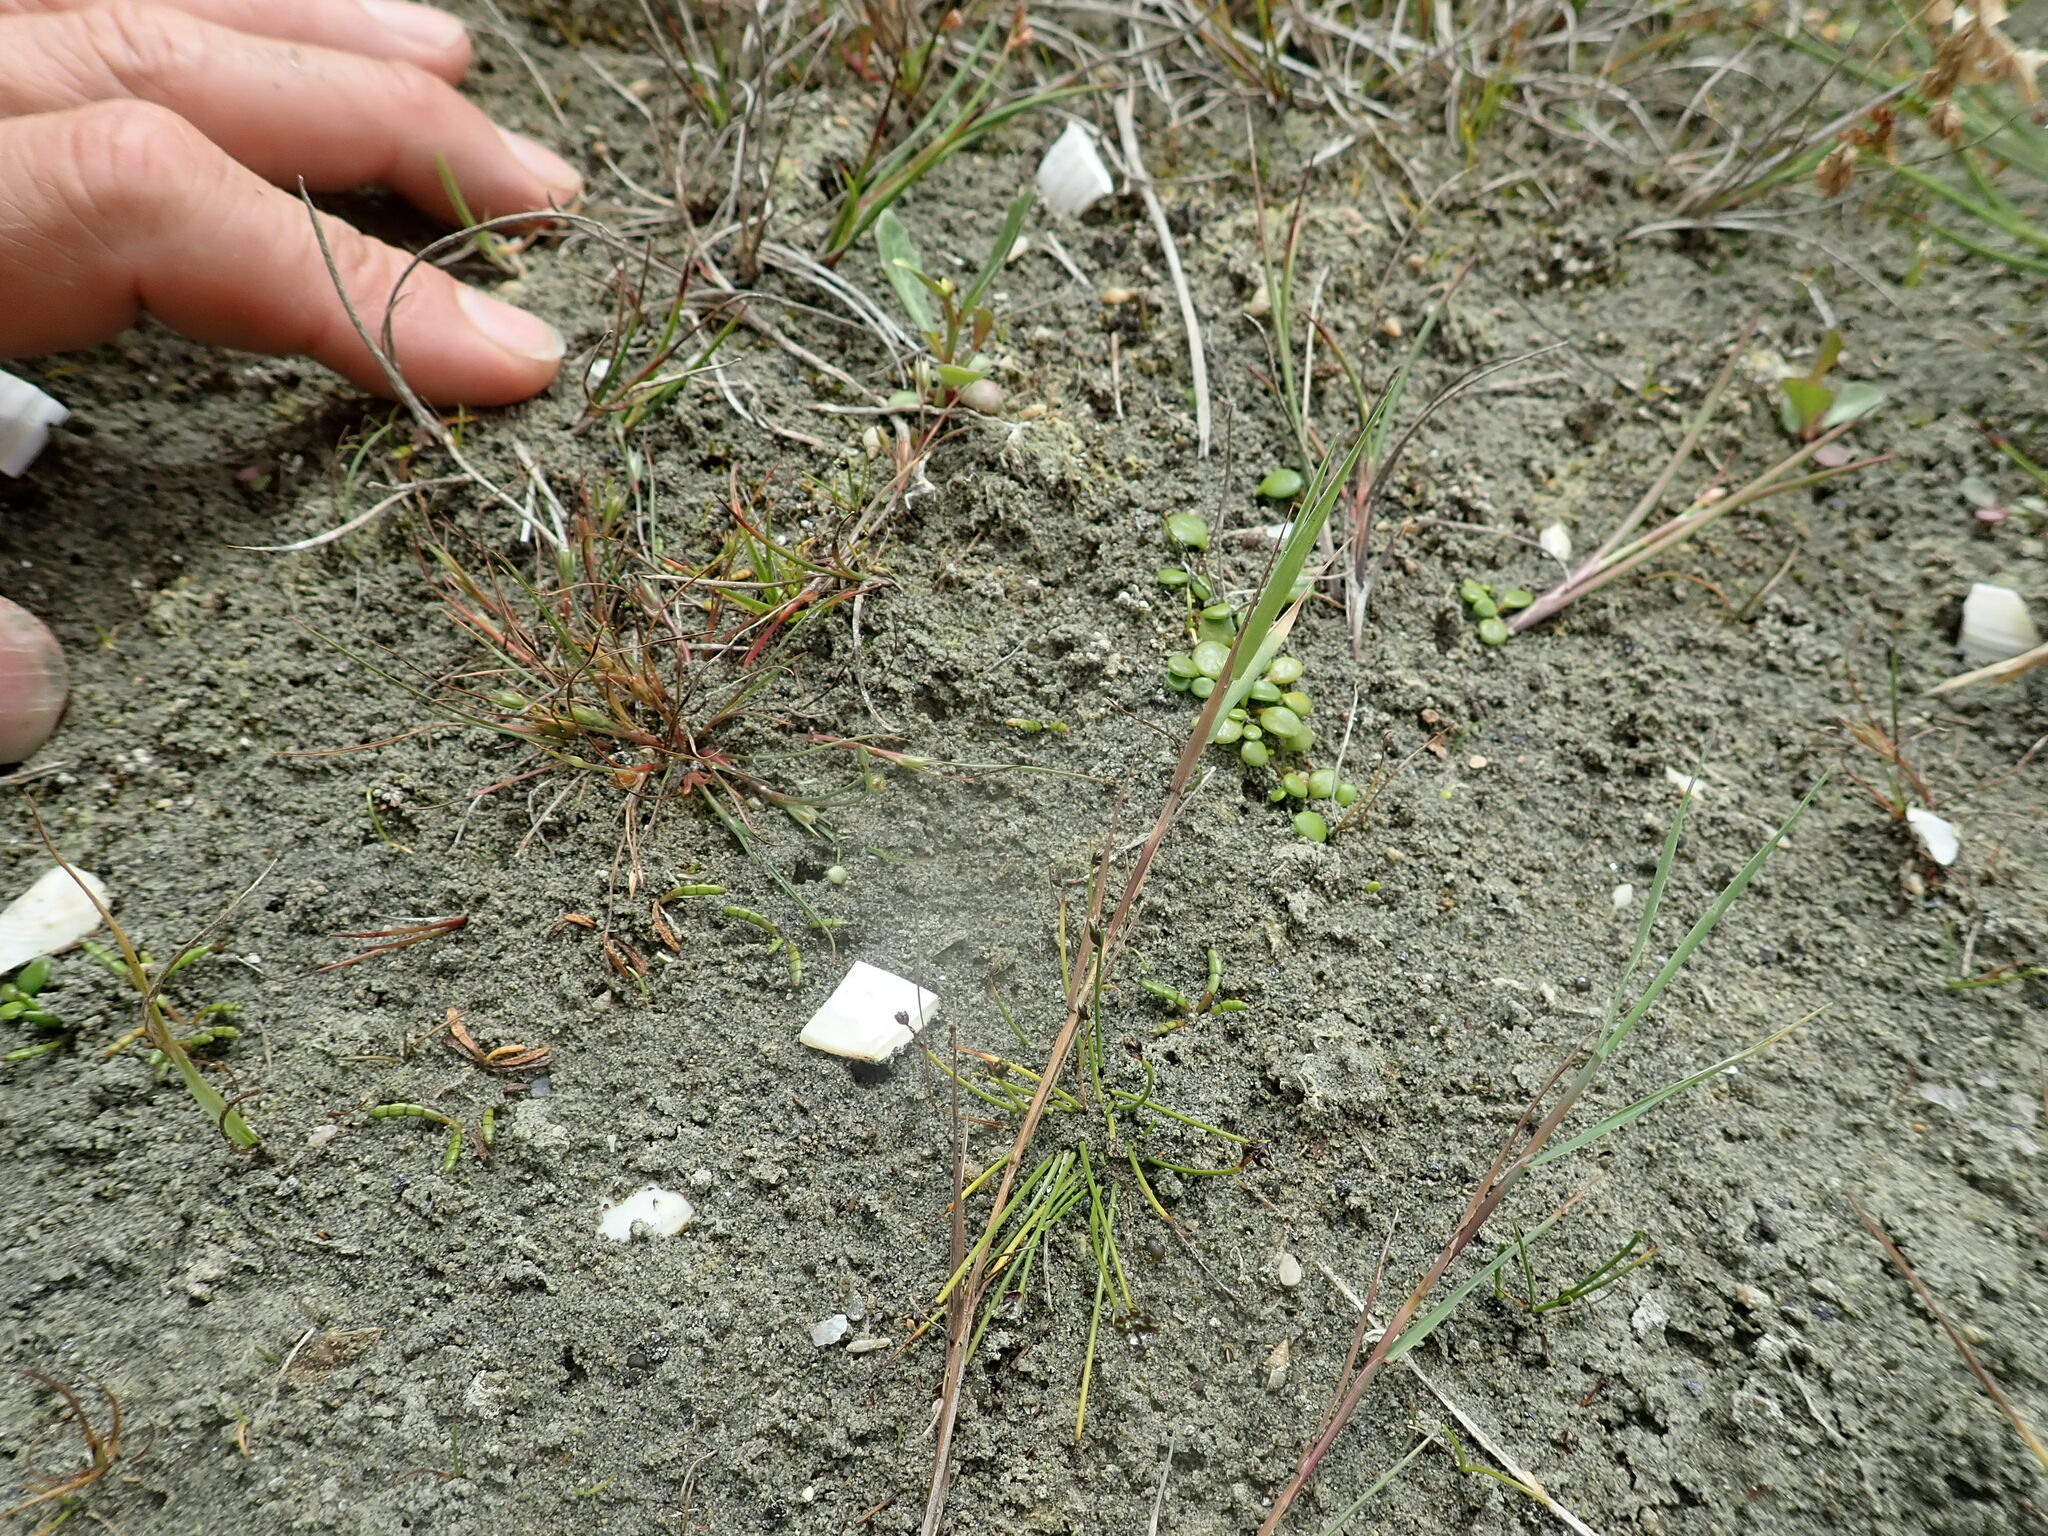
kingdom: Plantae
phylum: Tracheophyta
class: Liliopsida
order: Poales
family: Juncaceae
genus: Juncus
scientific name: Juncus bufonius
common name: Toad rush
